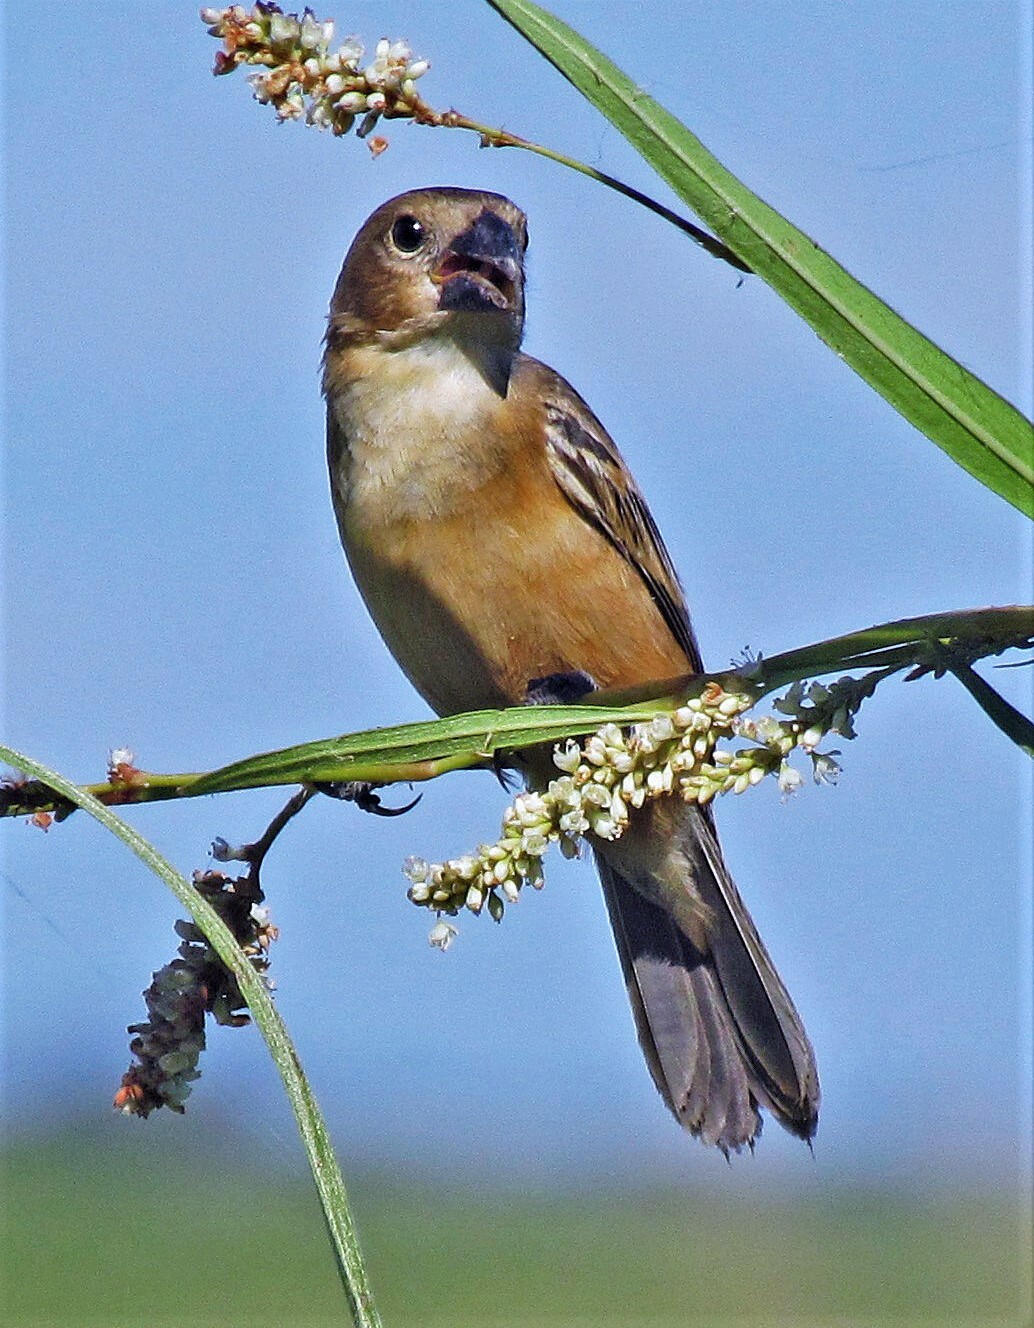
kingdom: Animalia
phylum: Chordata
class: Aves
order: Passeriformes
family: Thraupidae
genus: Sporophila
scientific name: Sporophila collaris
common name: Rusty-collared seedeater
